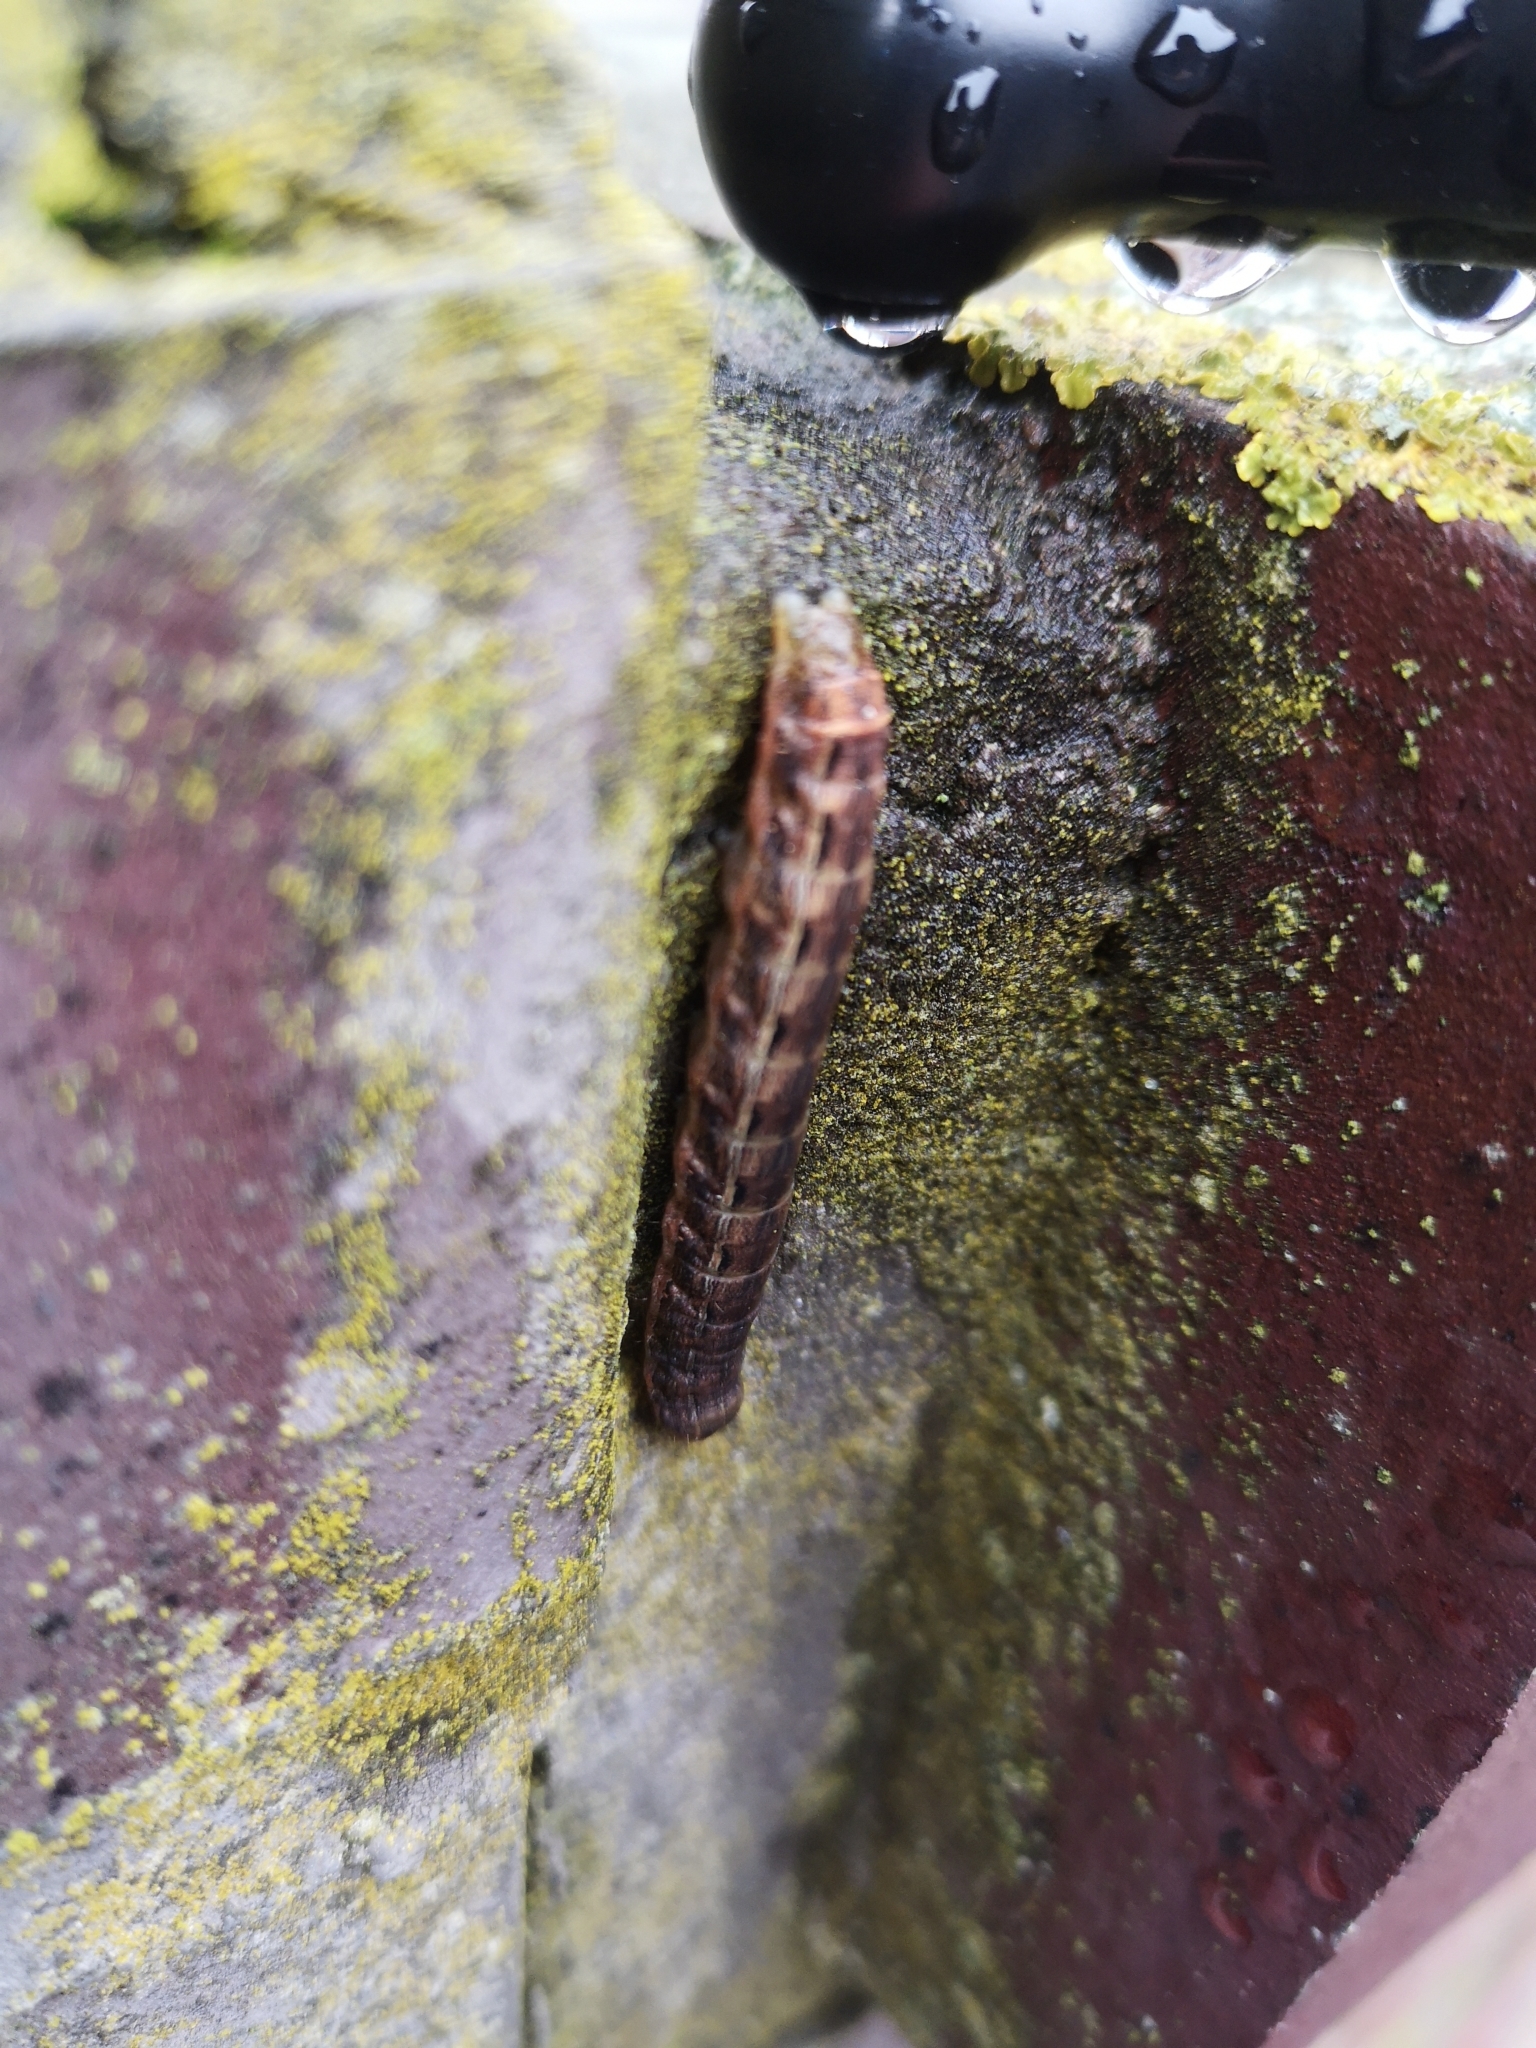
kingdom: Animalia
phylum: Arthropoda
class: Insecta
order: Lepidoptera
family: Noctuidae
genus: Noctua
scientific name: Noctua pronuba
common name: Large yellow underwing
